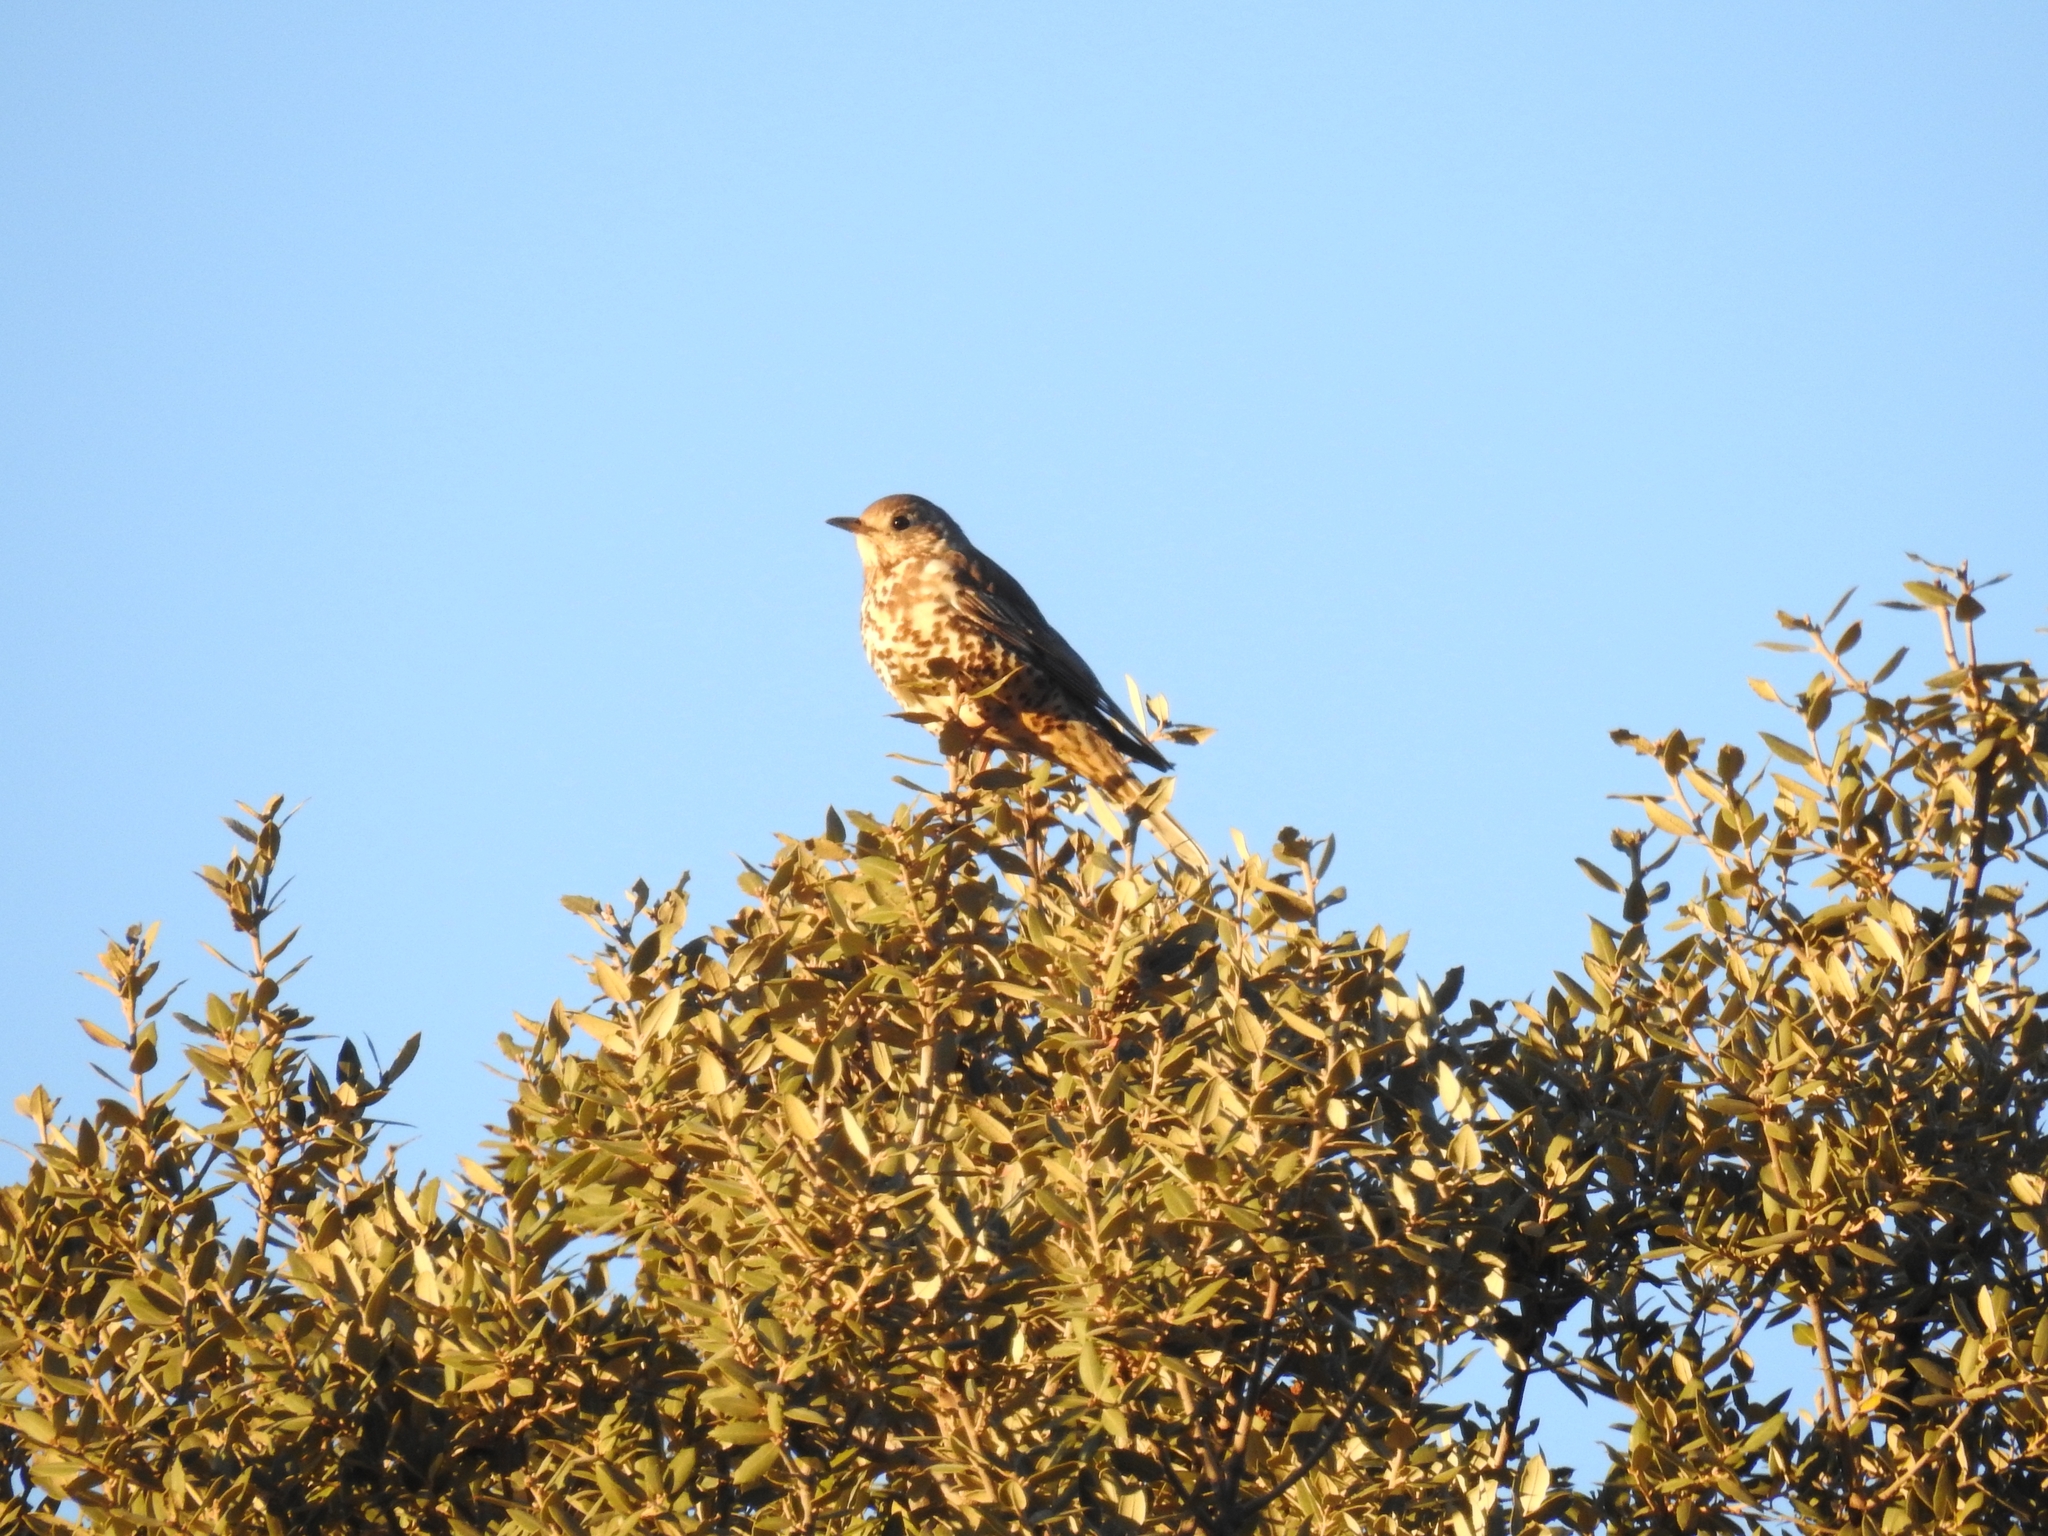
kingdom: Animalia
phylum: Chordata
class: Aves
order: Passeriformes
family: Turdidae
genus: Turdus
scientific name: Turdus viscivorus
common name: Mistle thrush
